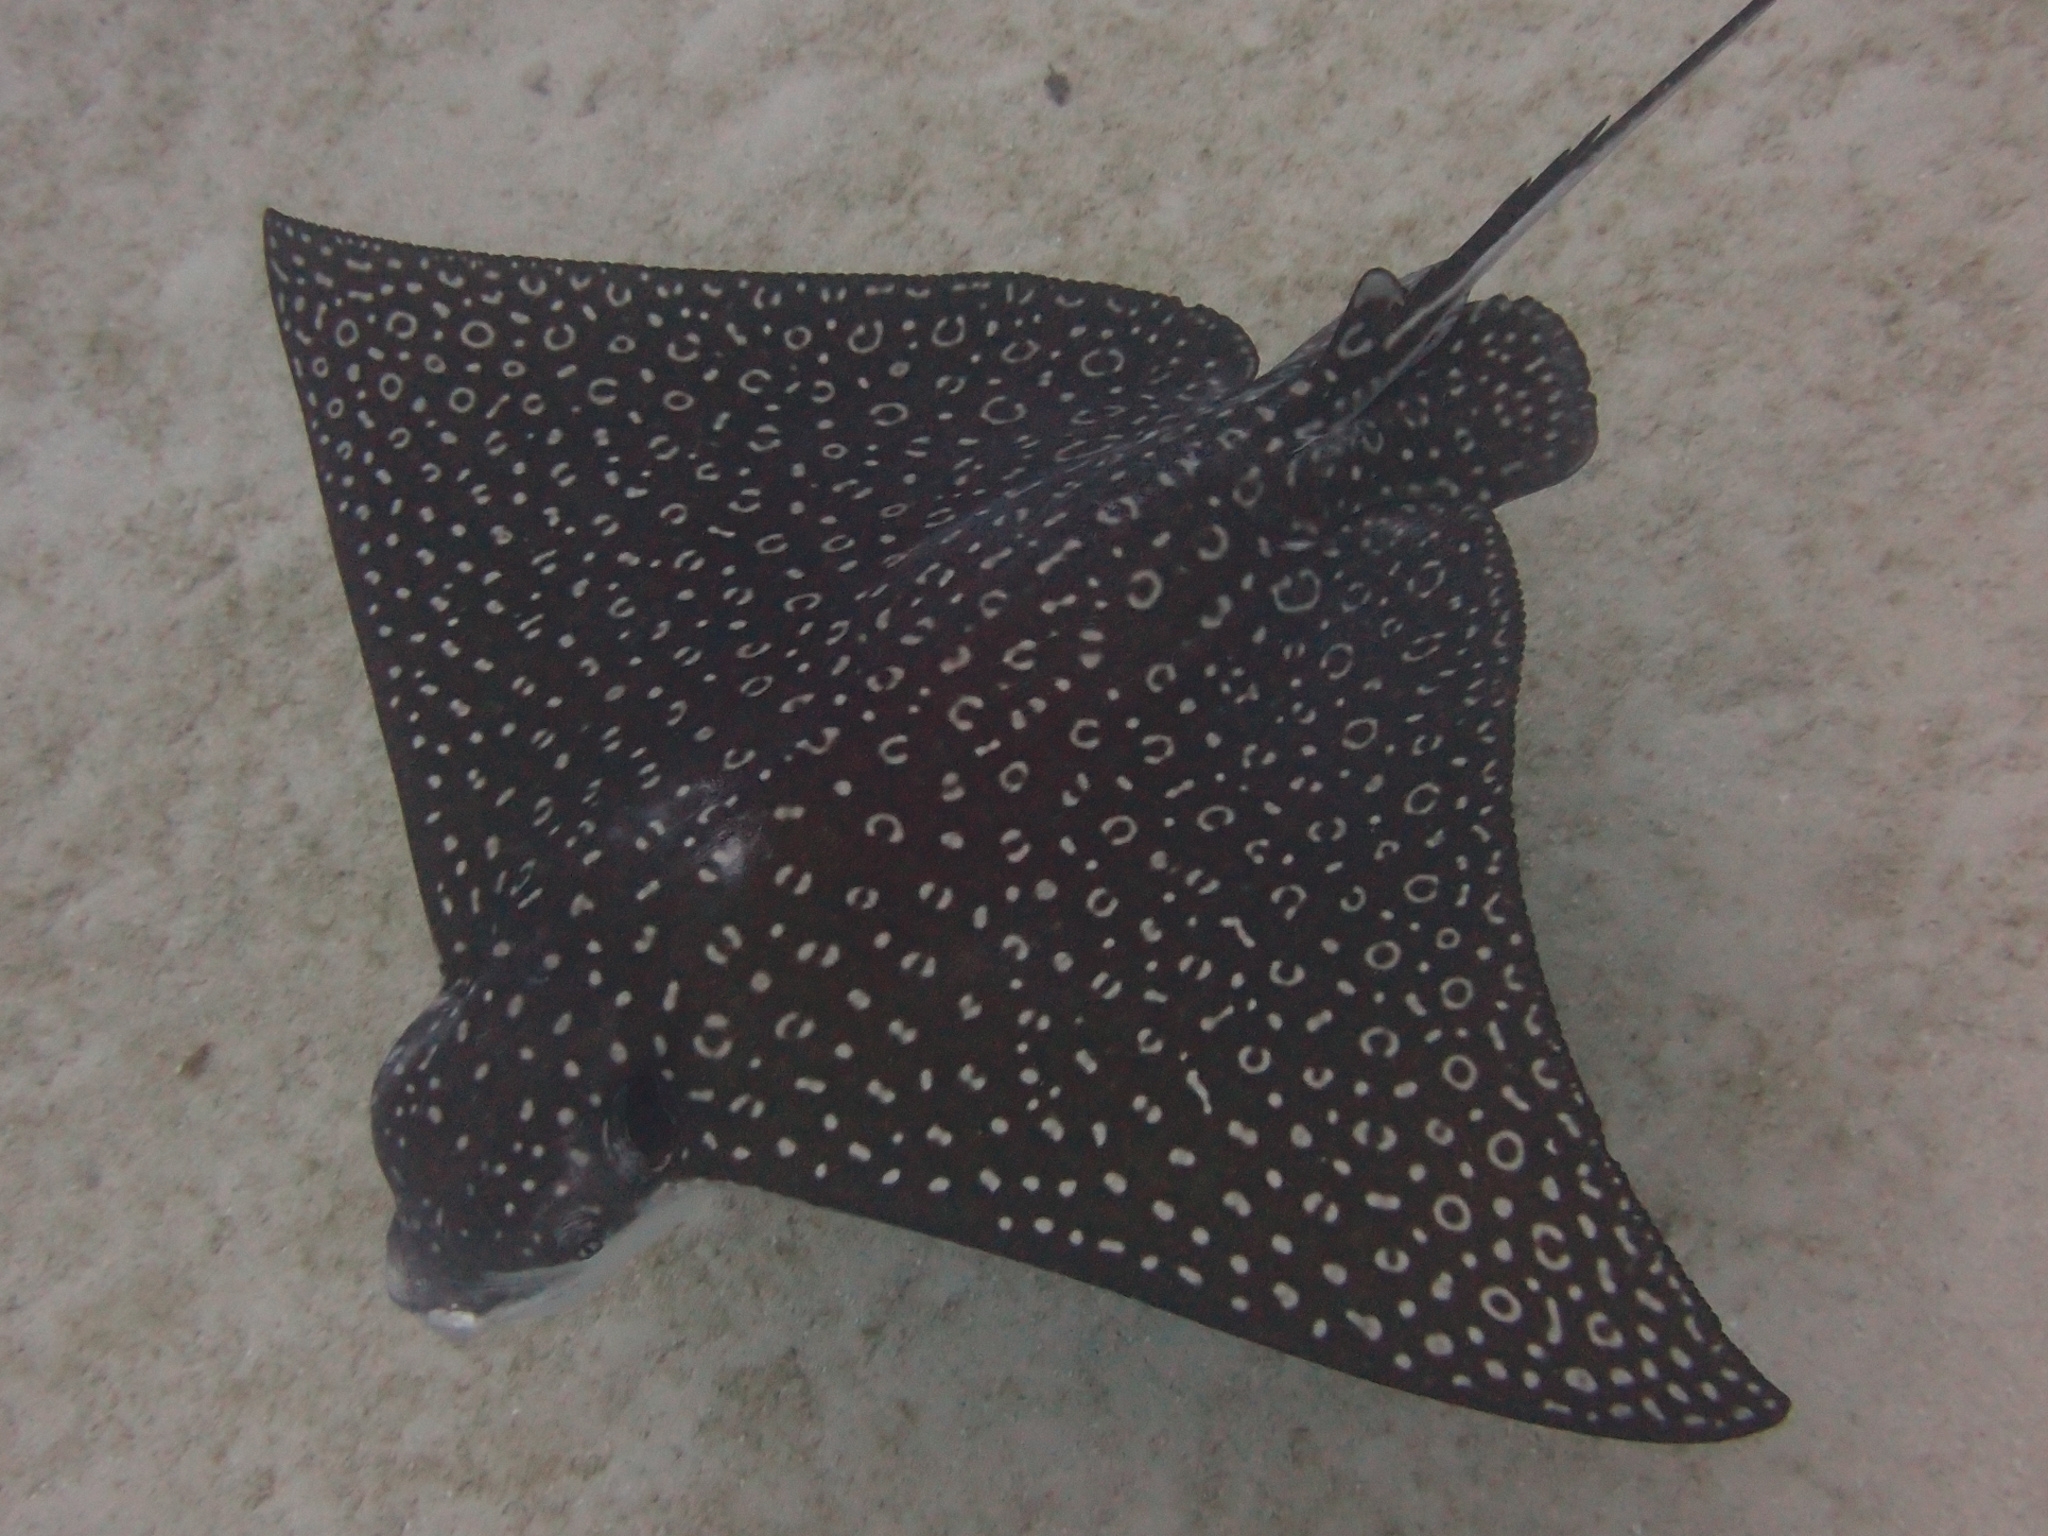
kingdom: Animalia
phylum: Chordata
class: Elasmobranchii
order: Myliobatiformes
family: Myliobatidae
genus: Aetobatus
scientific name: Aetobatus narinari
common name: Spotted eagle ray
